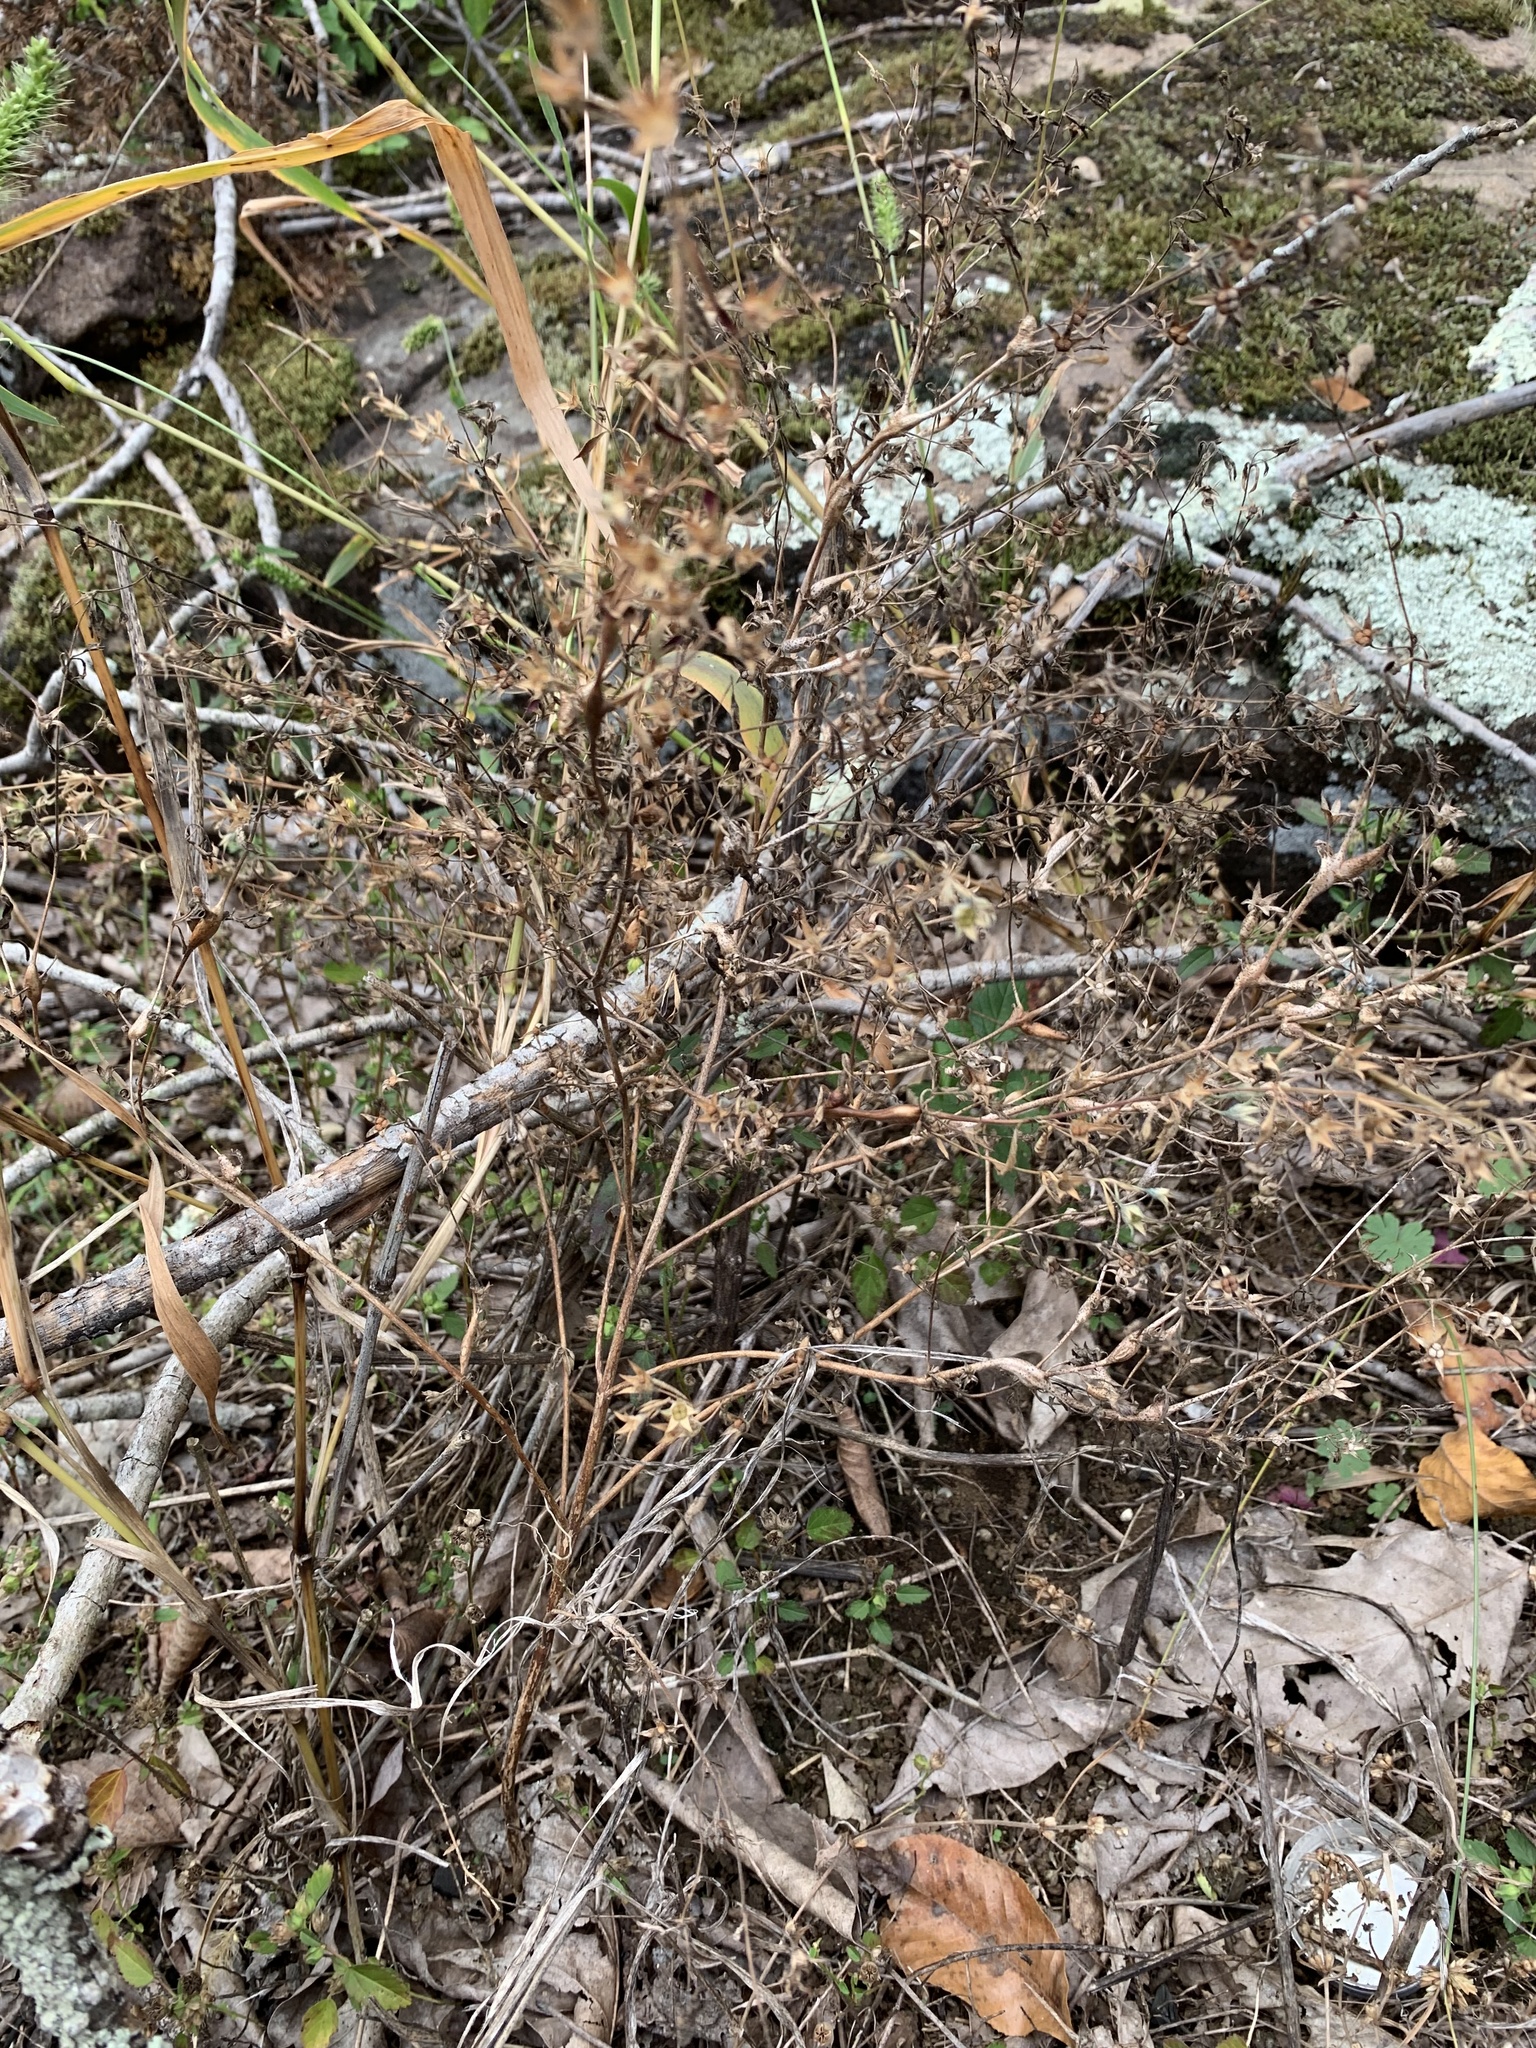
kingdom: Plantae
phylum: Tracheophyta
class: Magnoliopsida
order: Lamiales
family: Lamiaceae
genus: Trichostema
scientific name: Trichostema brachiatum
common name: False pennyroyal
